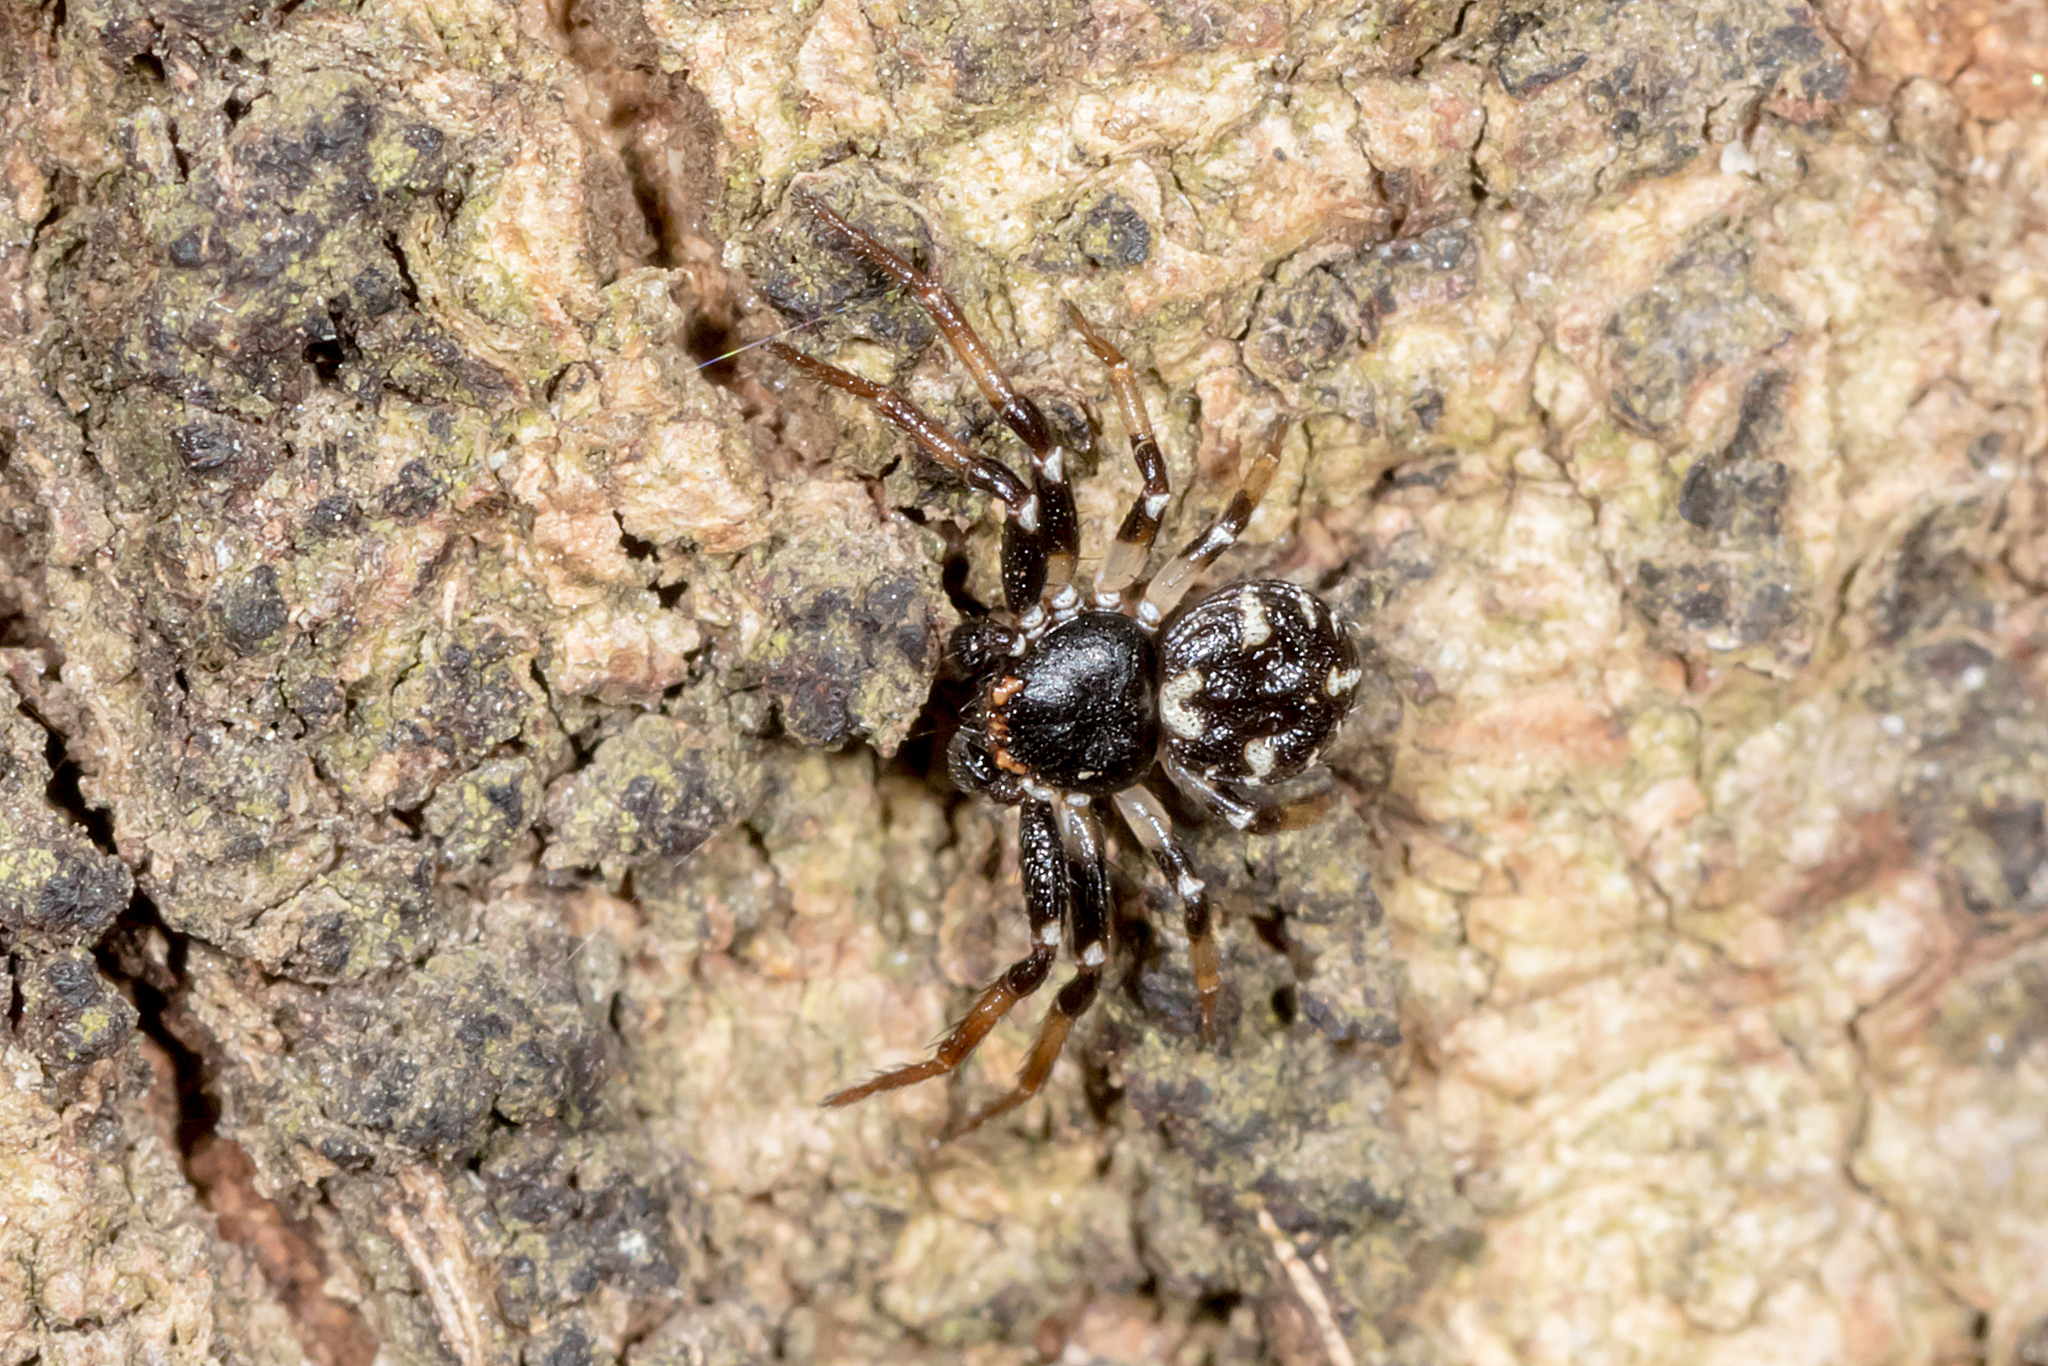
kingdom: Animalia
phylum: Arthropoda
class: Arachnida
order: Araneae
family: Thomisidae
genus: Tharpyna
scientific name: Tharpyna decorata
